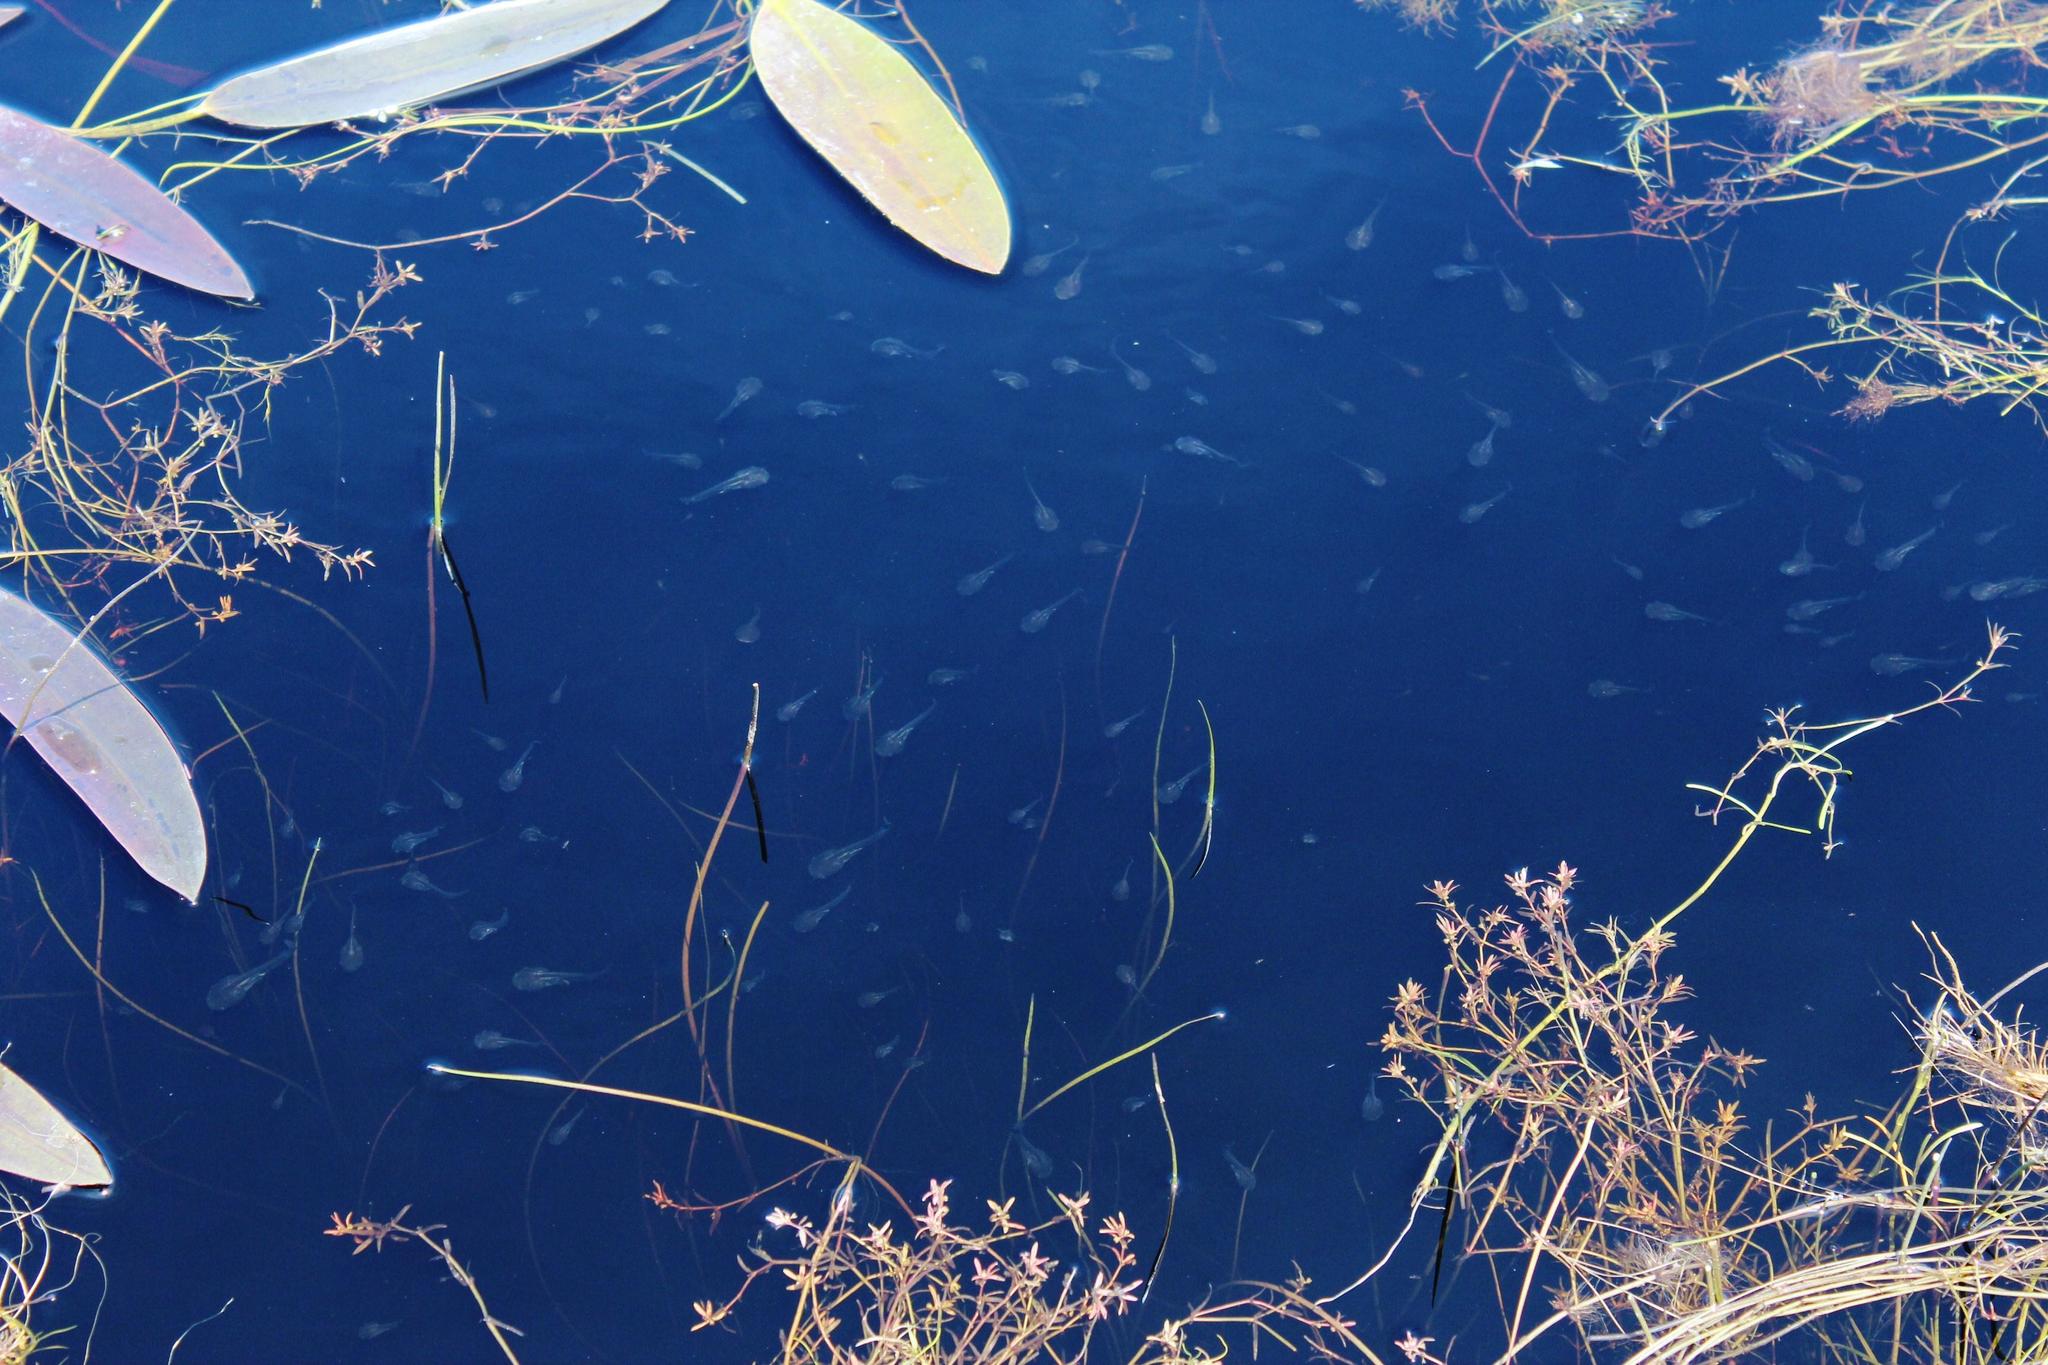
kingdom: Animalia
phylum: Chordata
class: Amphibia
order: Anura
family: Pipidae
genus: Xenopus
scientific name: Xenopus laevis
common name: African clawed frog
